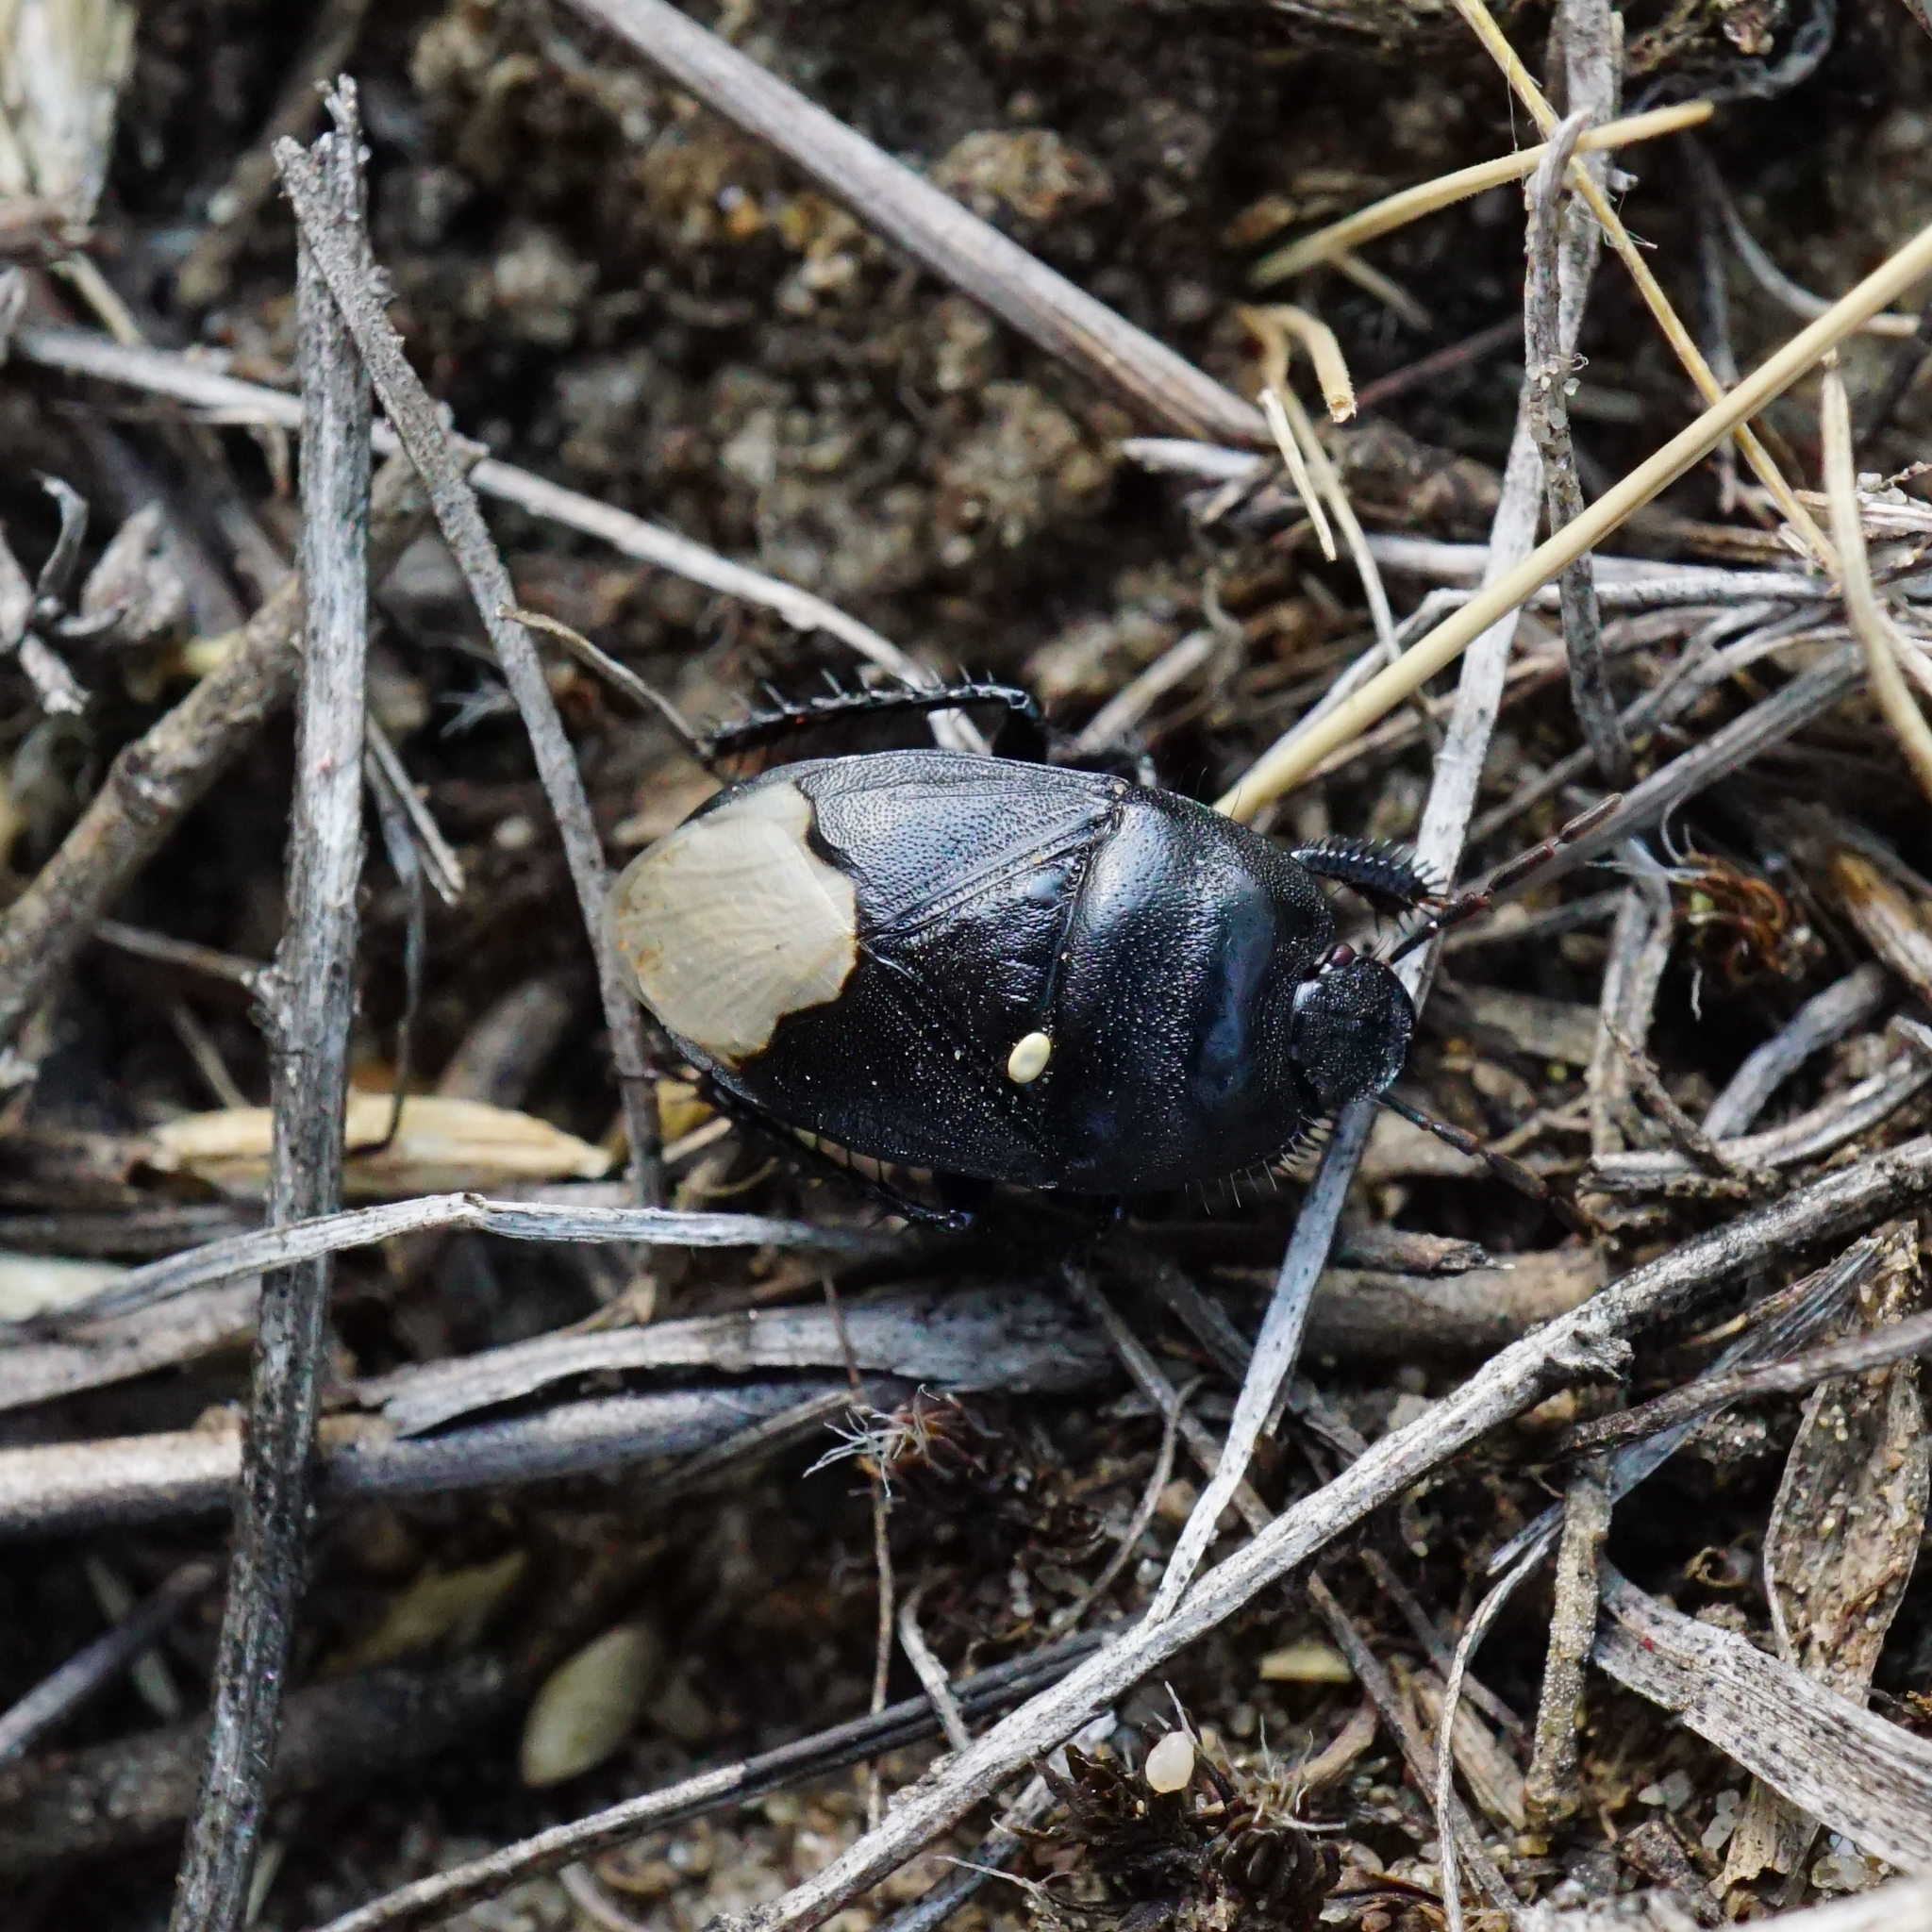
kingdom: Animalia
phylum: Arthropoda
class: Insecta
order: Hemiptera
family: Cydnidae
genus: Cydnus
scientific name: Cydnus aterrimus
